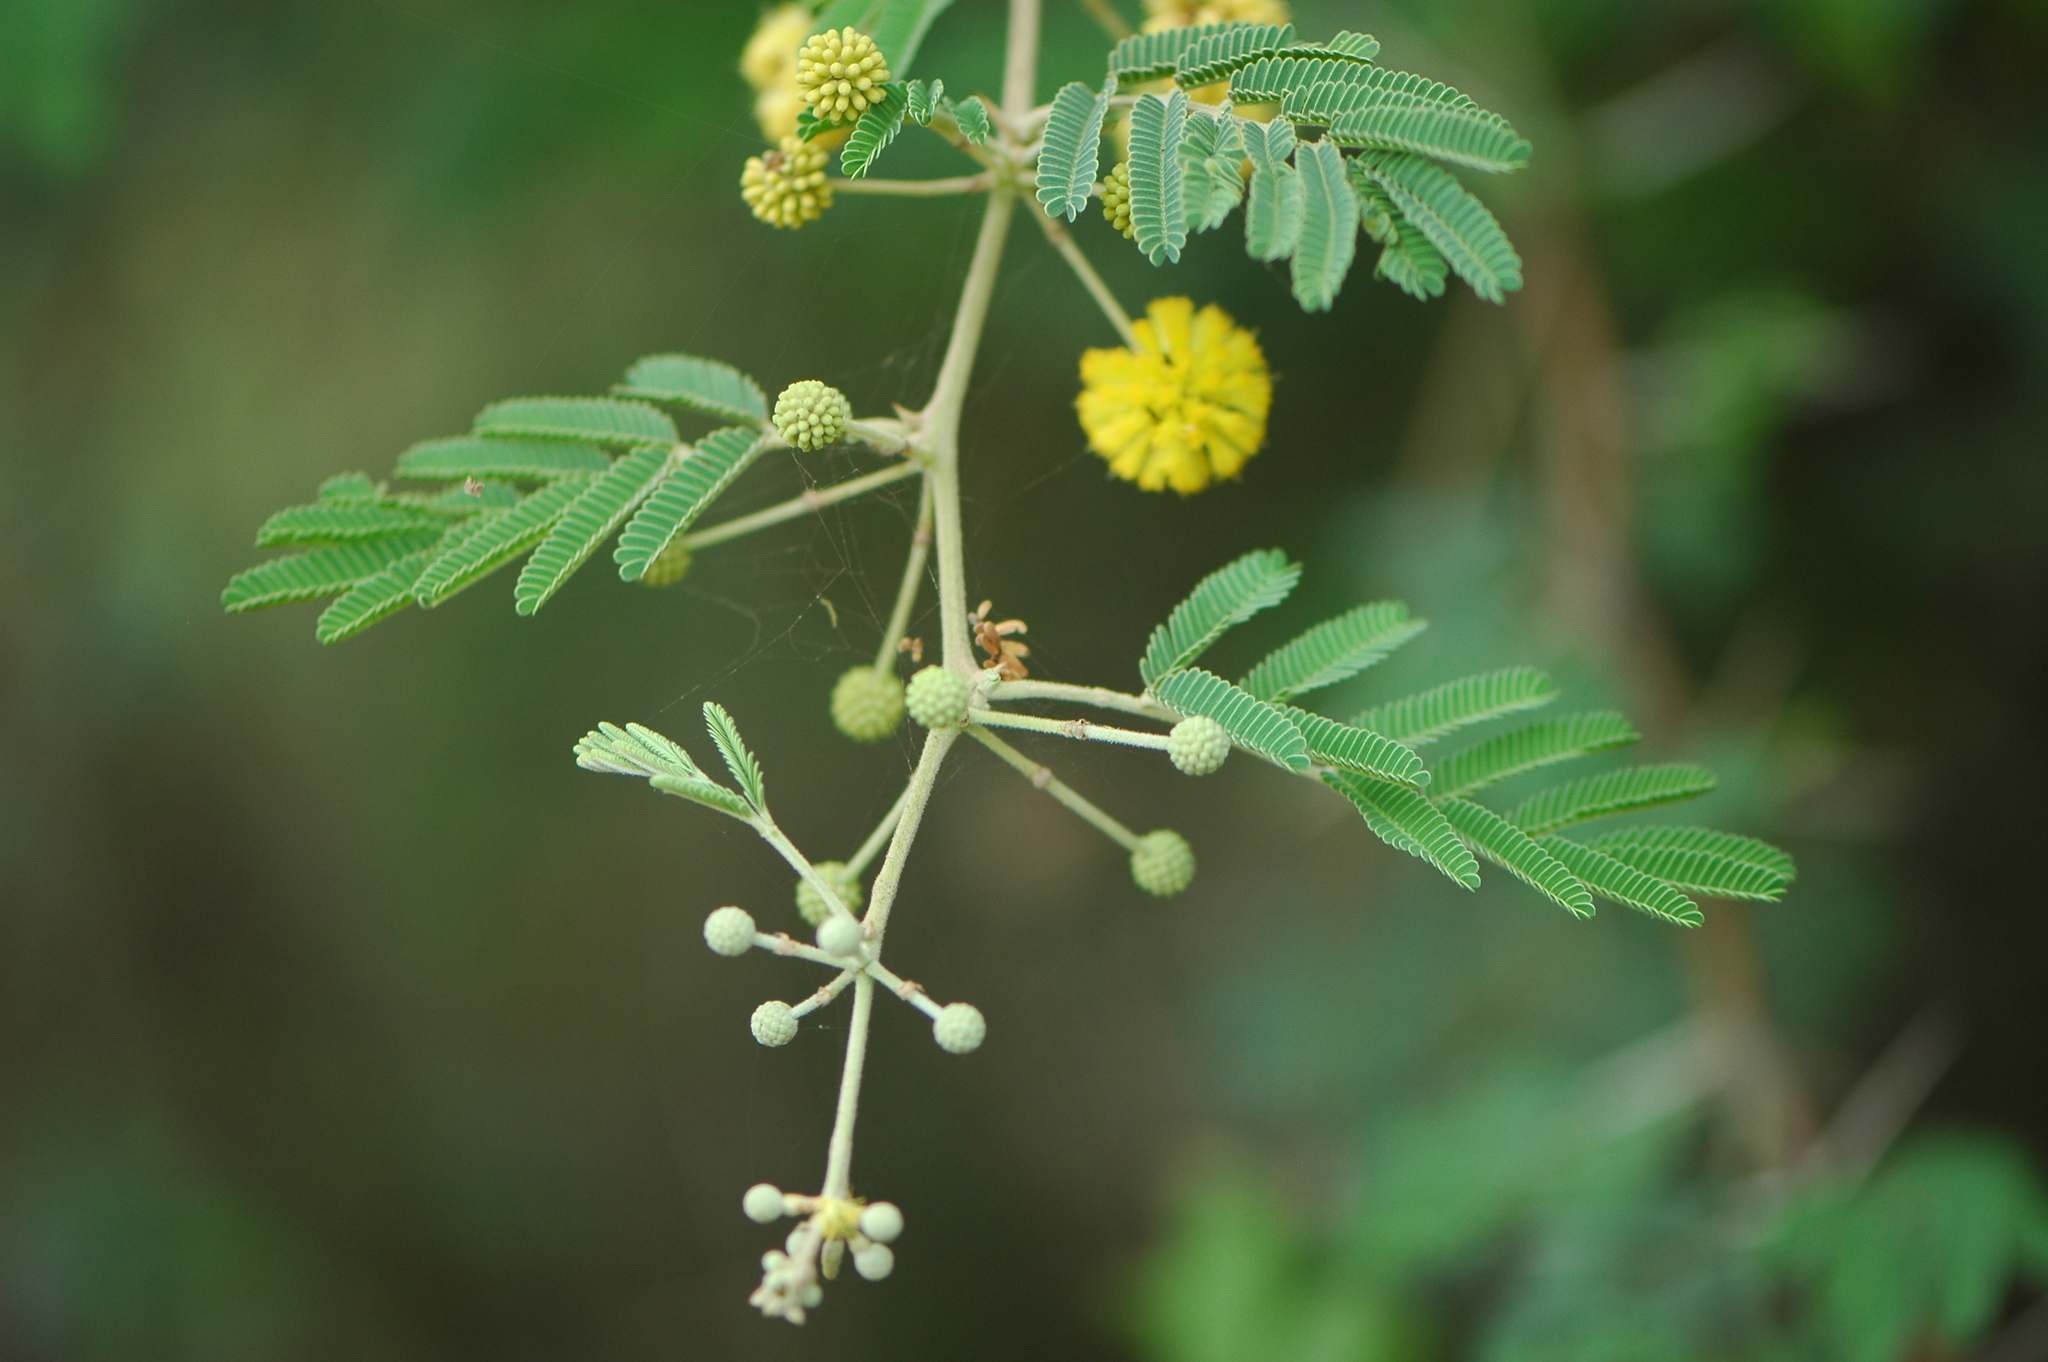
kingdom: Plantae
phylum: Tracheophyta
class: Magnoliopsida
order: Fabales
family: Fabaceae
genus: Vachellia
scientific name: Vachellia nilotica
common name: Arabic gumtree
